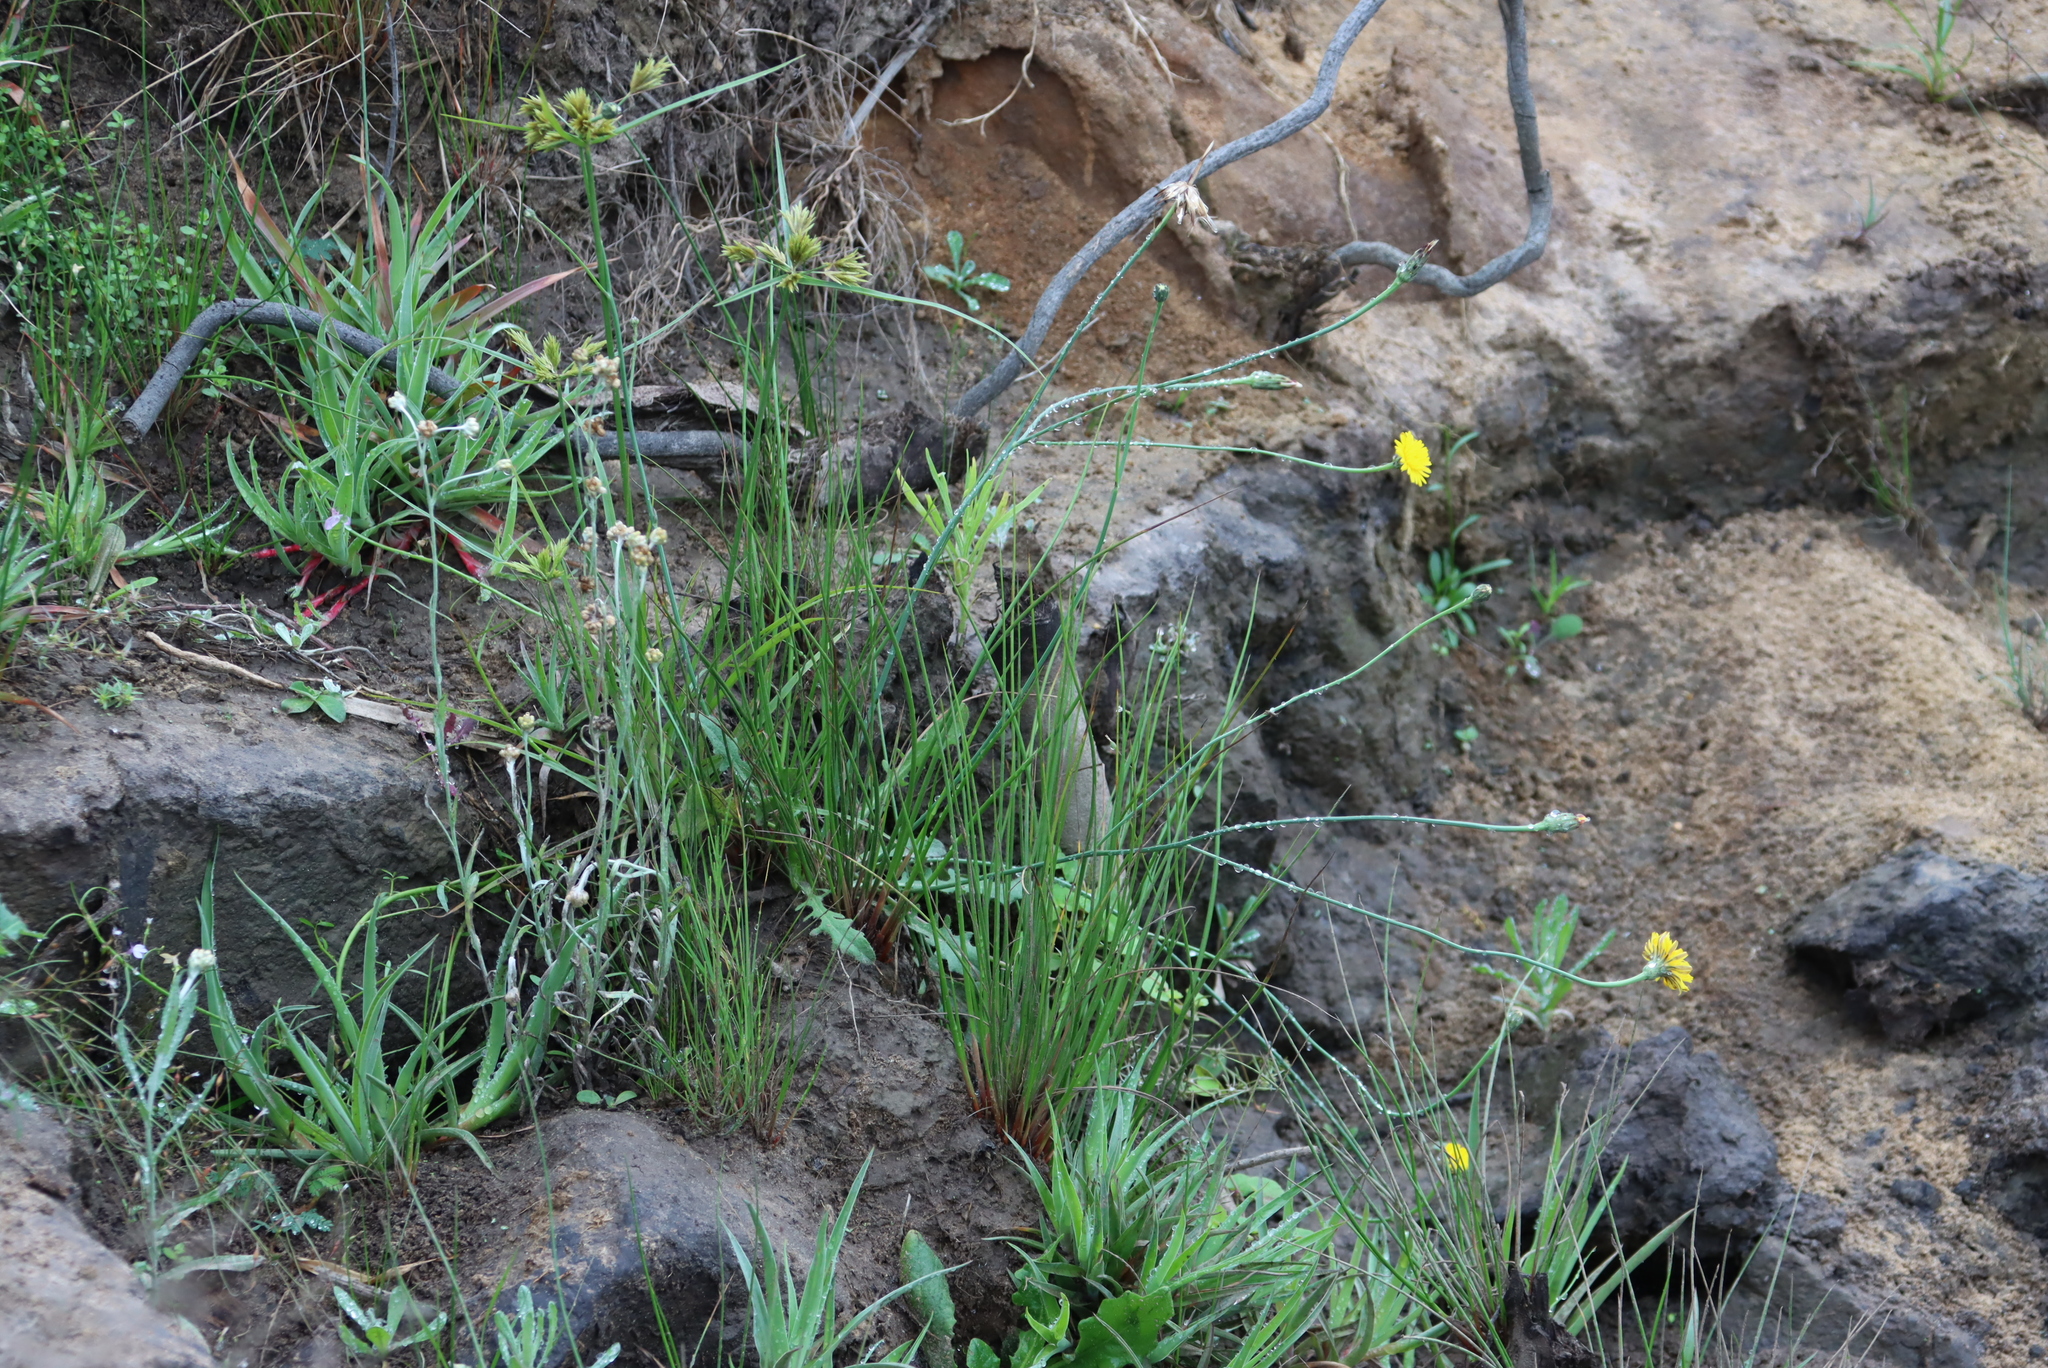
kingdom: Plantae
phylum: Tracheophyta
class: Magnoliopsida
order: Asterales
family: Asteraceae
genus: Hypochaeris
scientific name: Hypochaeris radicata
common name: Flatweed
